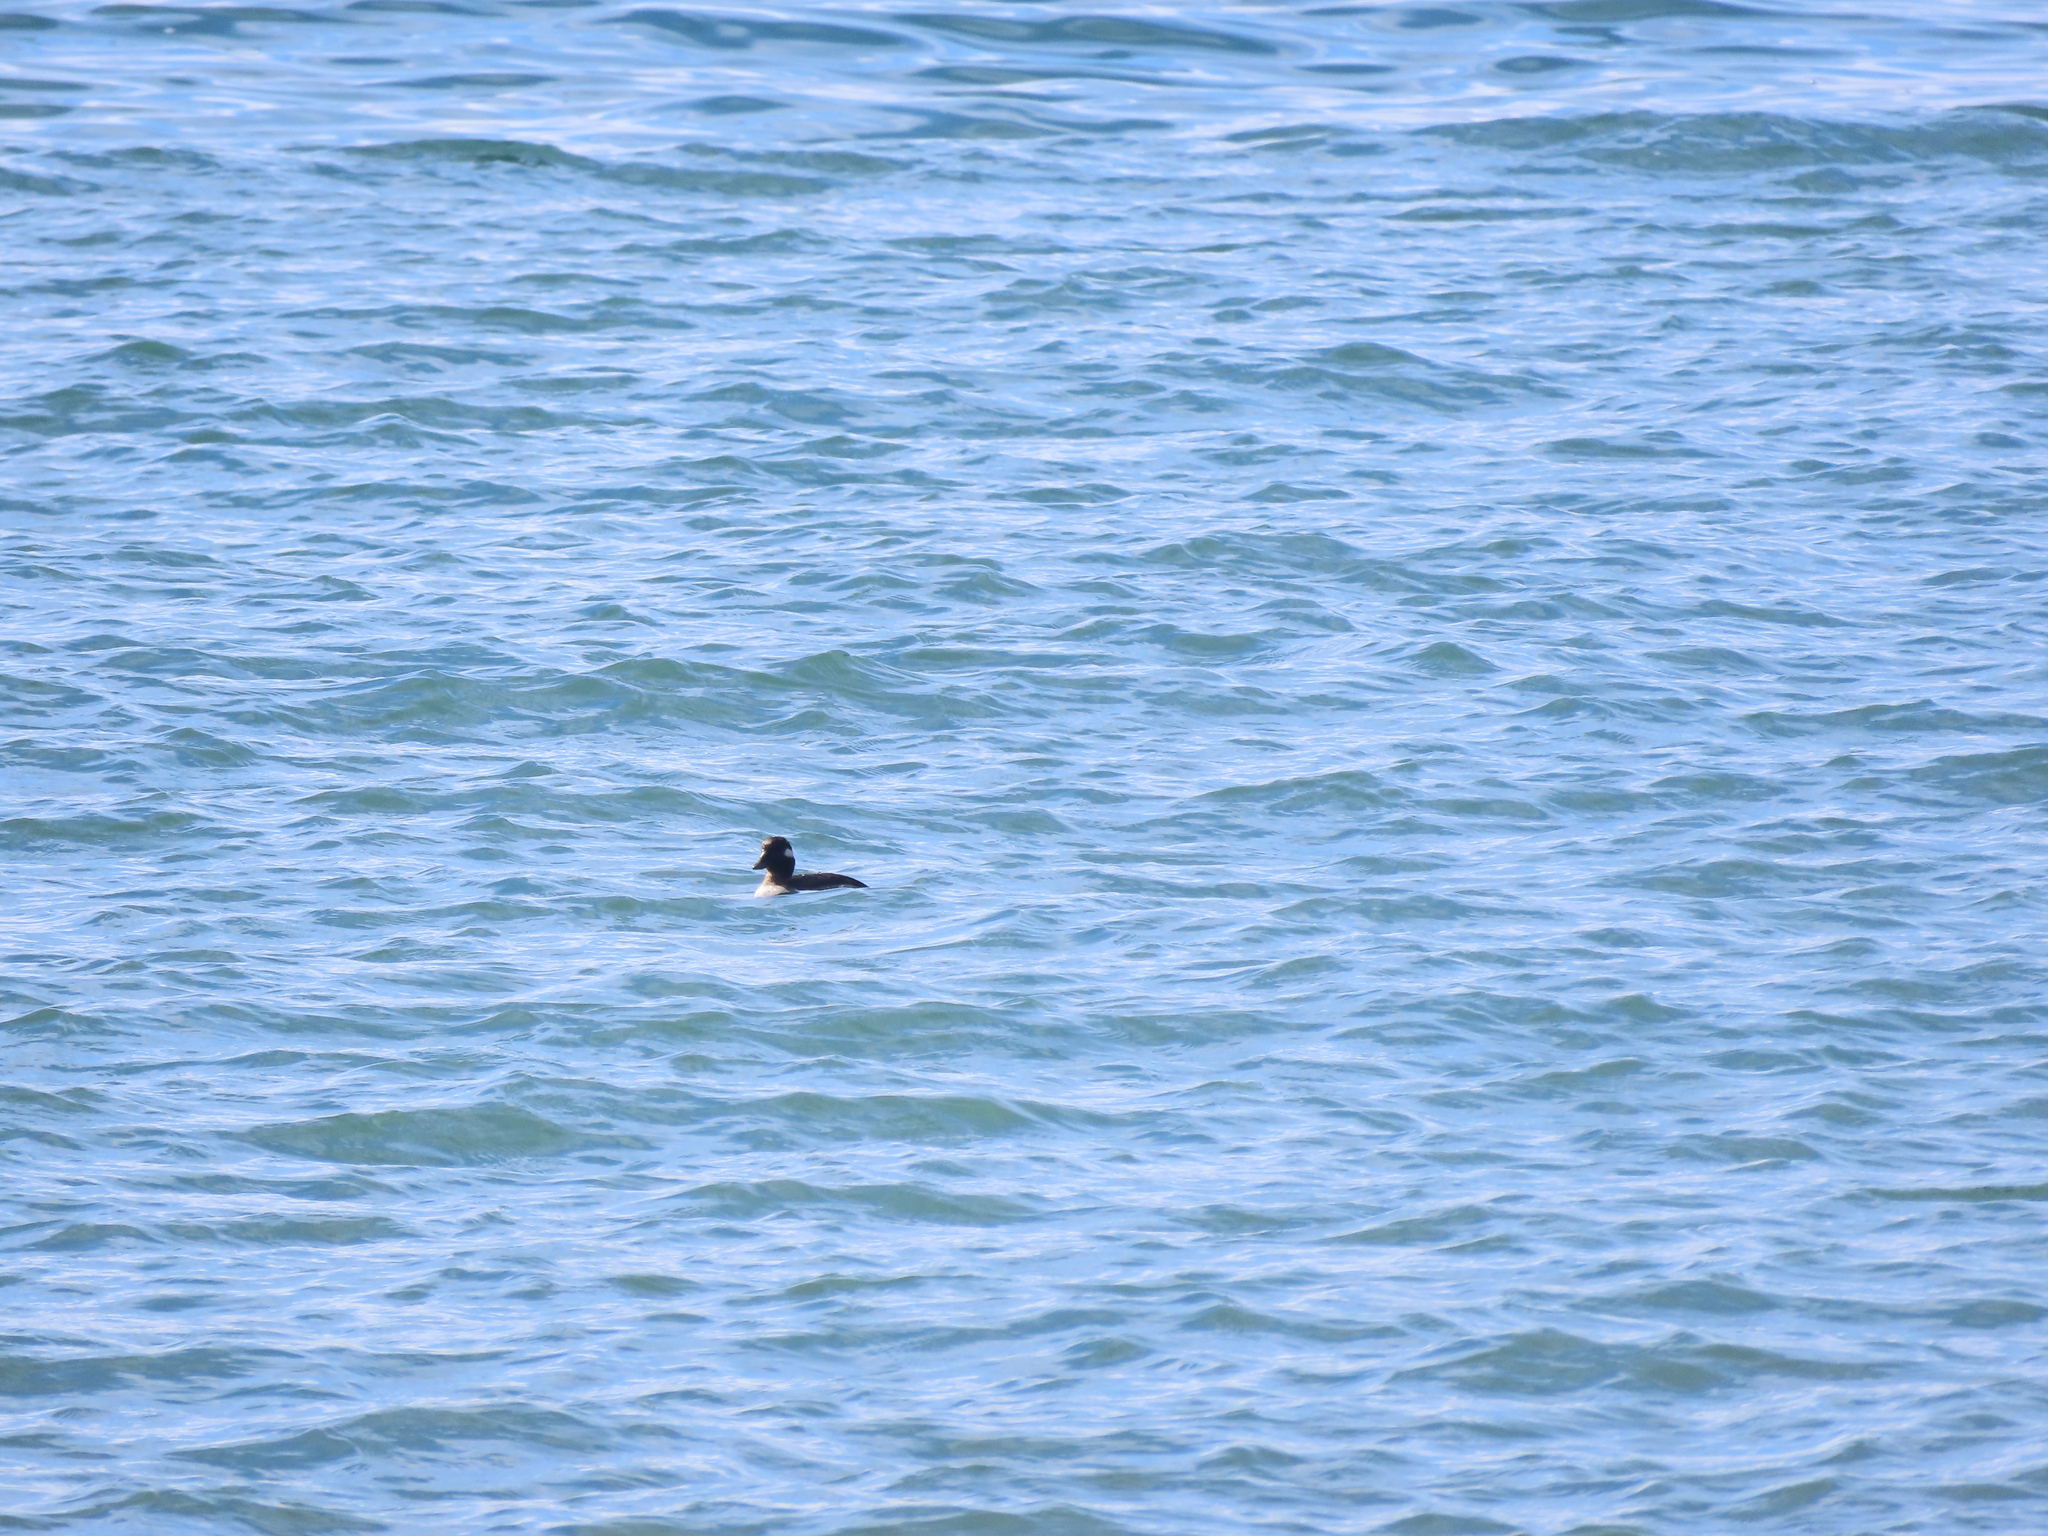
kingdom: Animalia
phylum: Chordata
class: Aves
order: Anseriformes
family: Anatidae
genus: Bucephala
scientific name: Bucephala albeola
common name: Bufflehead
